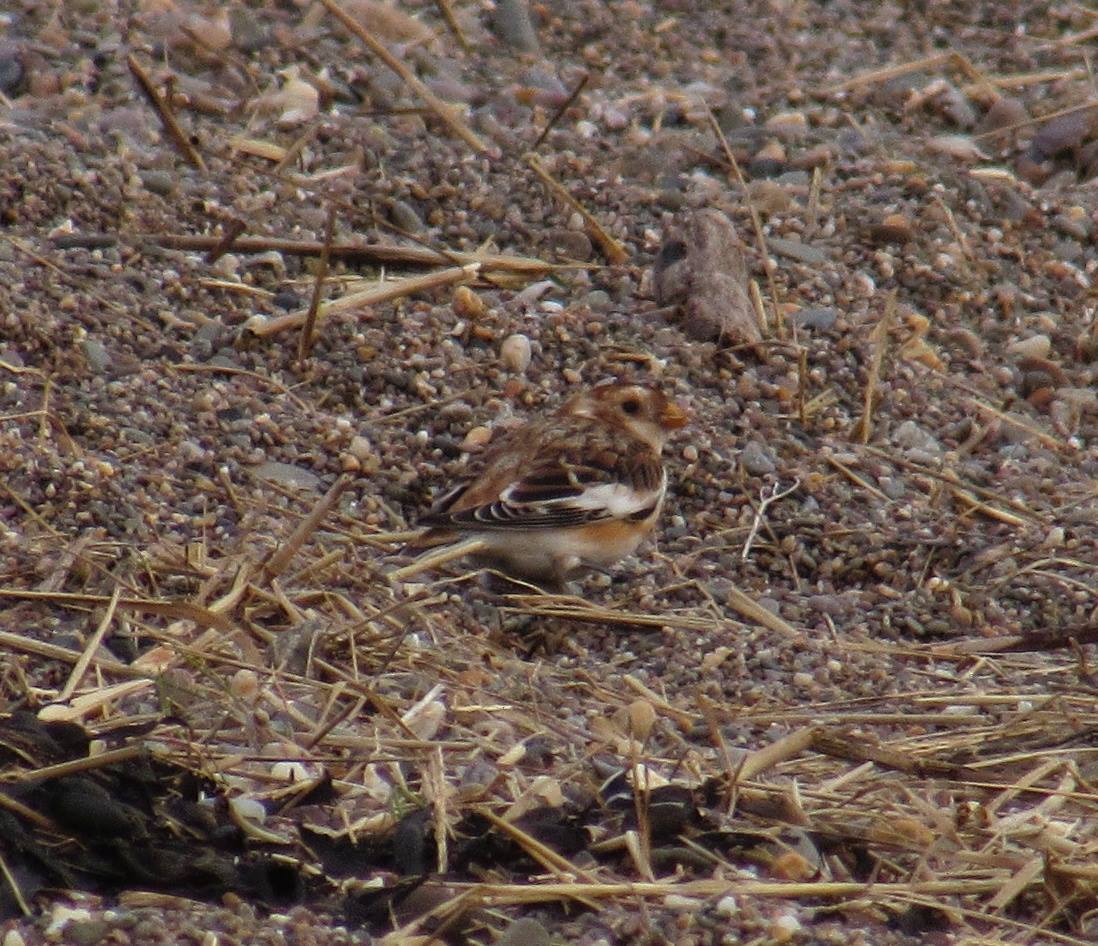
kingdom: Animalia
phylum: Chordata
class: Aves
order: Passeriformes
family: Calcariidae
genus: Plectrophenax
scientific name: Plectrophenax nivalis
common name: Snow bunting
